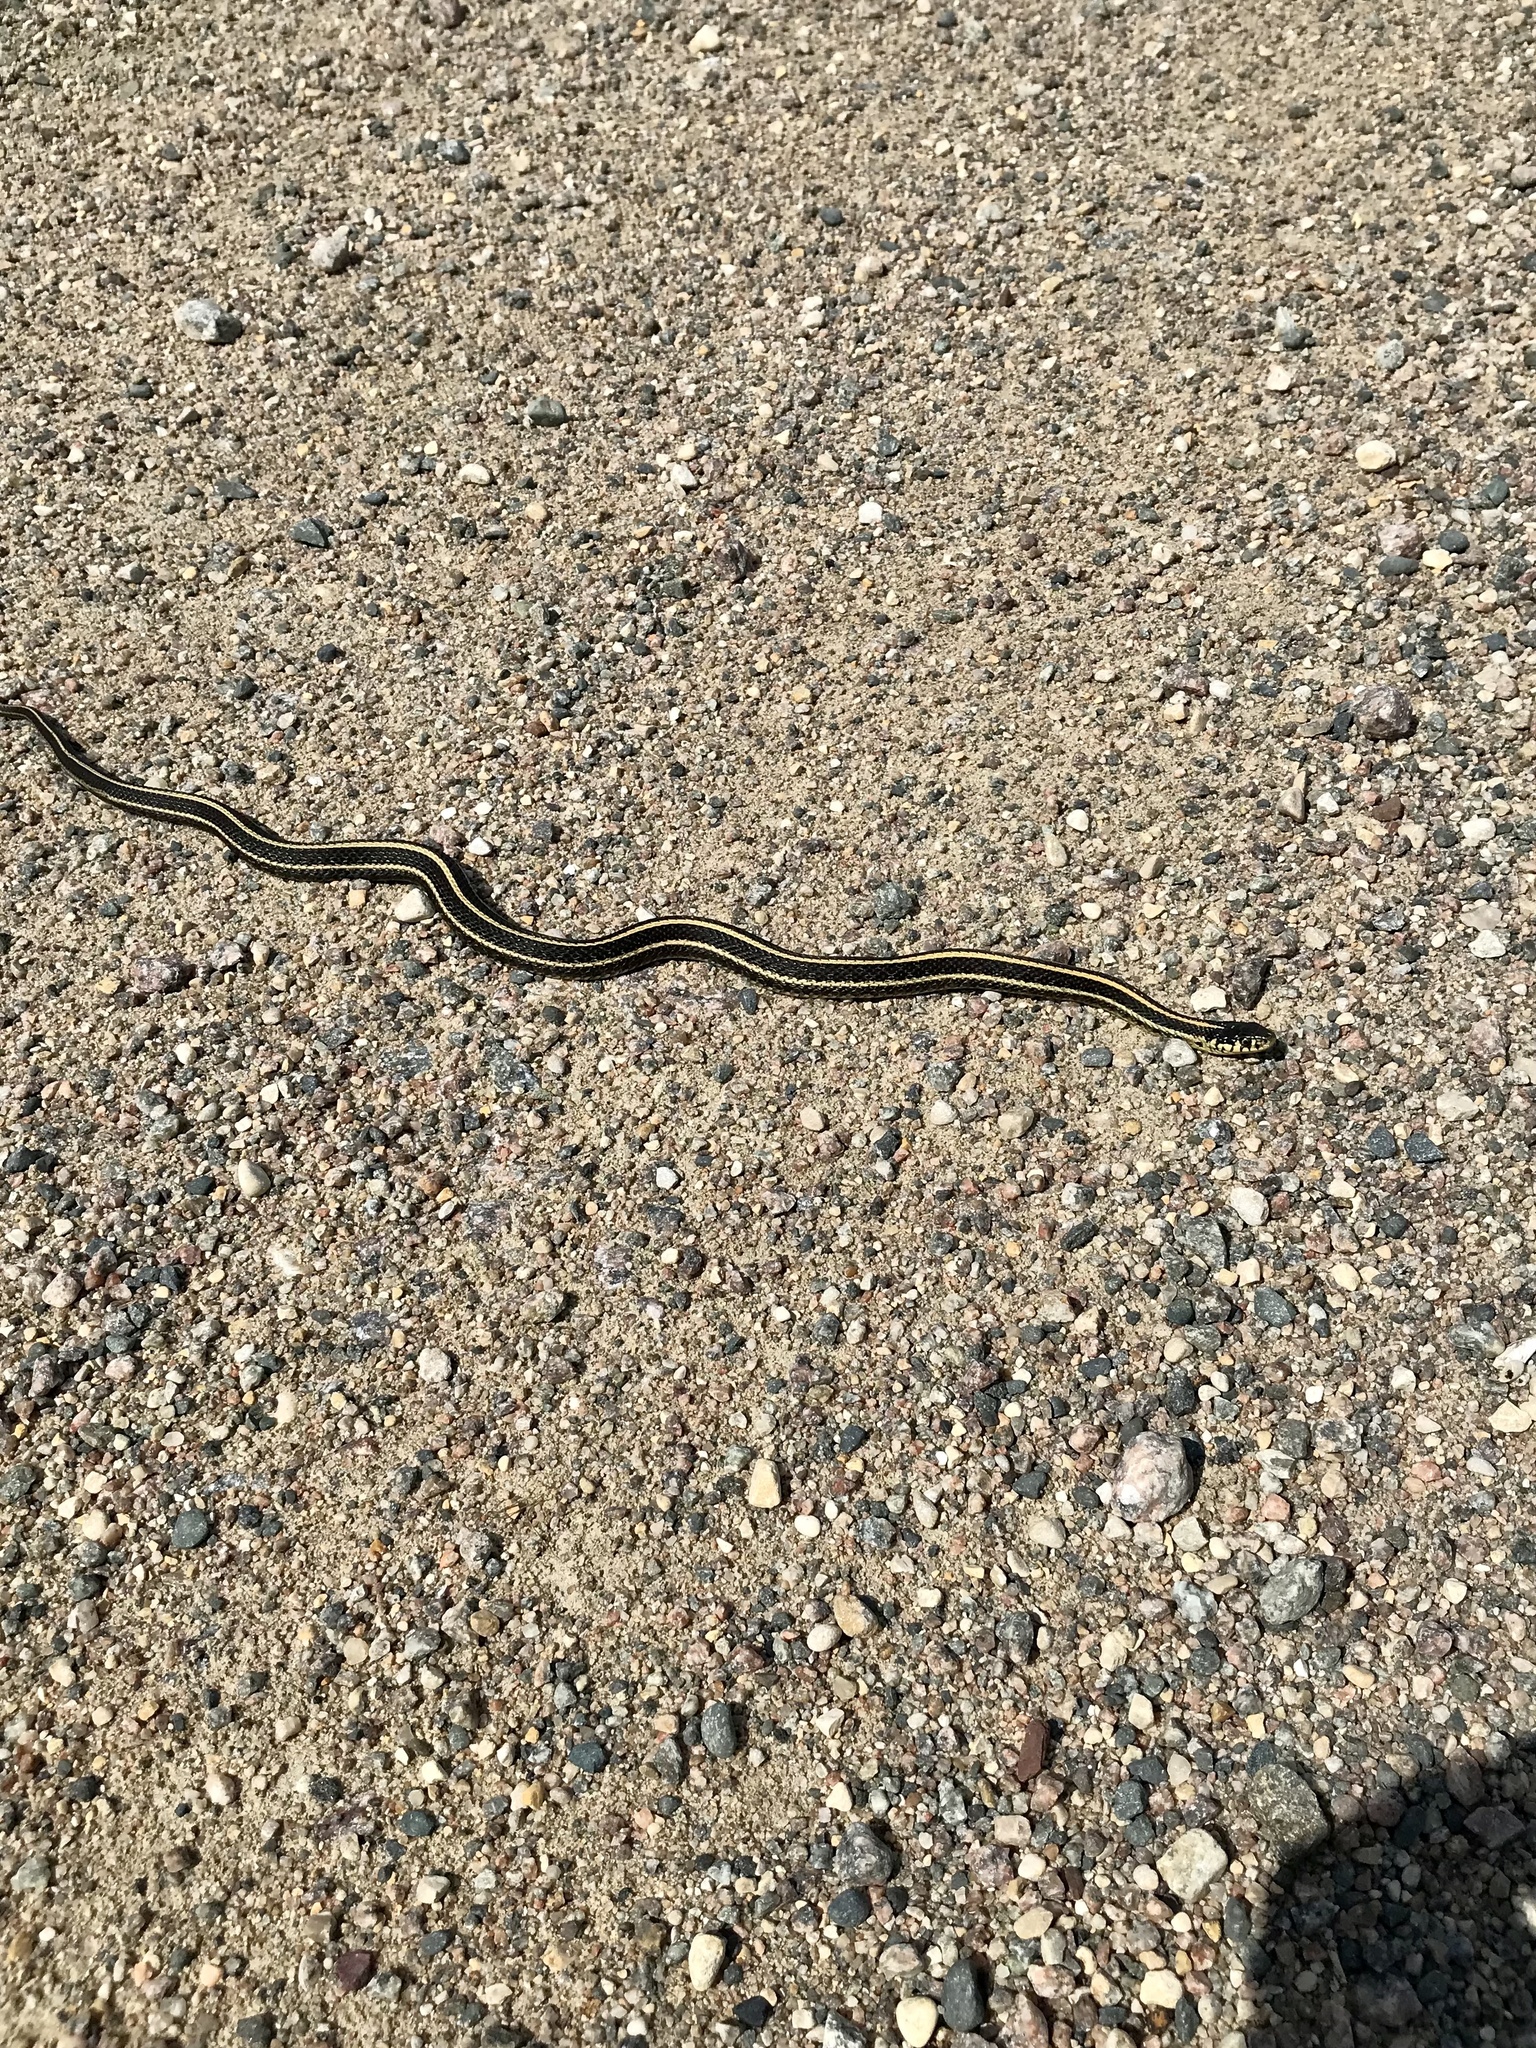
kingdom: Animalia
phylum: Chordata
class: Squamata
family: Colubridae
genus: Thamnophis
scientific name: Thamnophis radix
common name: Plains garter snake
